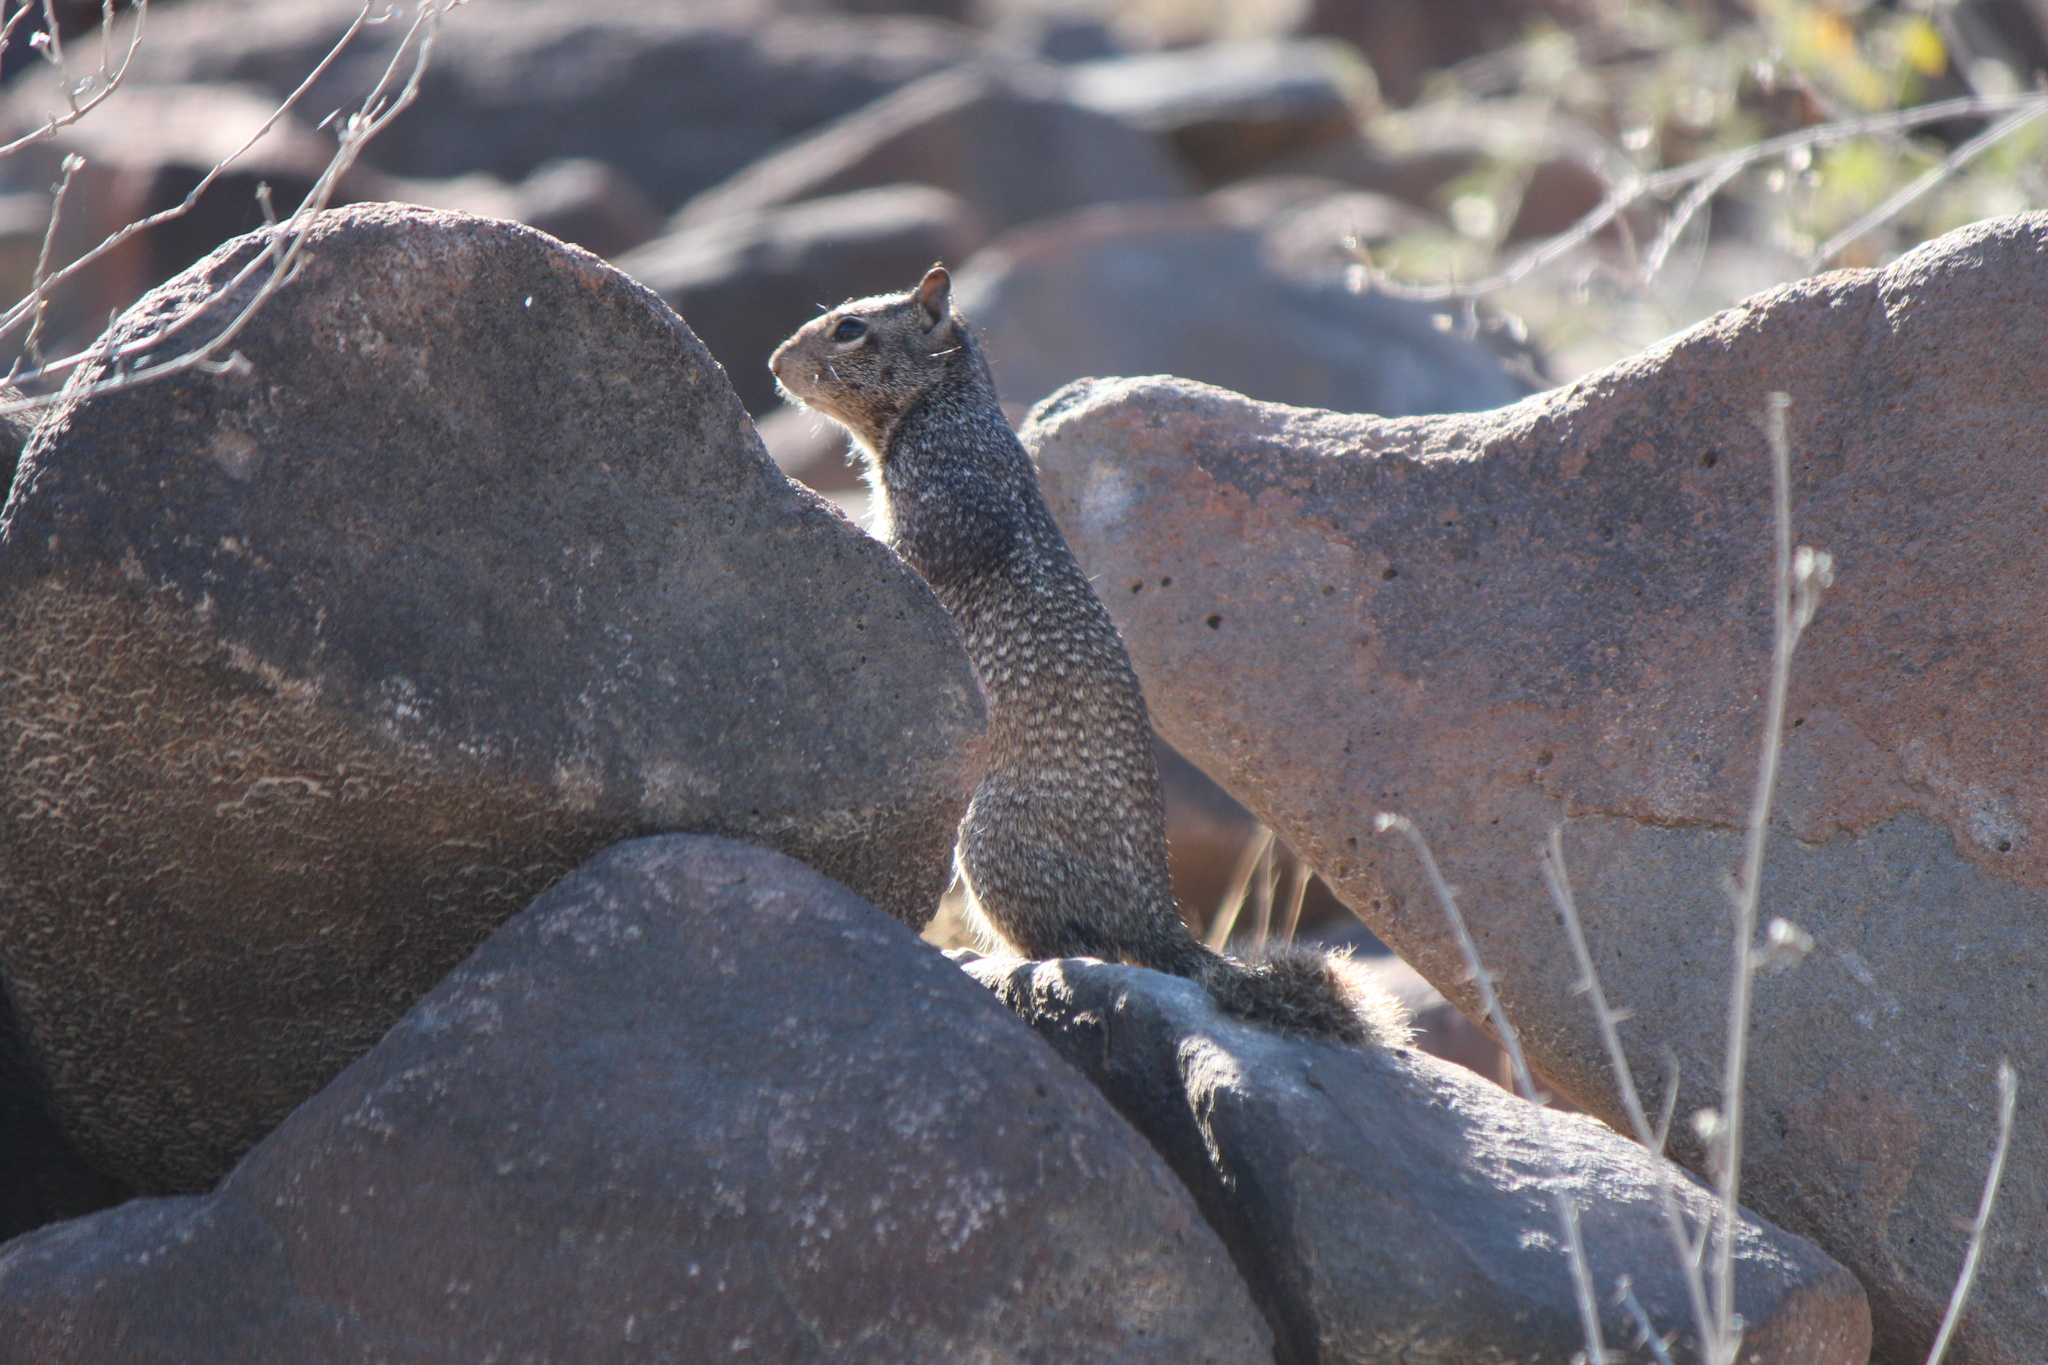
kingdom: Animalia
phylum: Chordata
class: Mammalia
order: Rodentia
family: Sciuridae
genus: Otospermophilus
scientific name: Otospermophilus atricapillus
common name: Baja california rock squirrel
